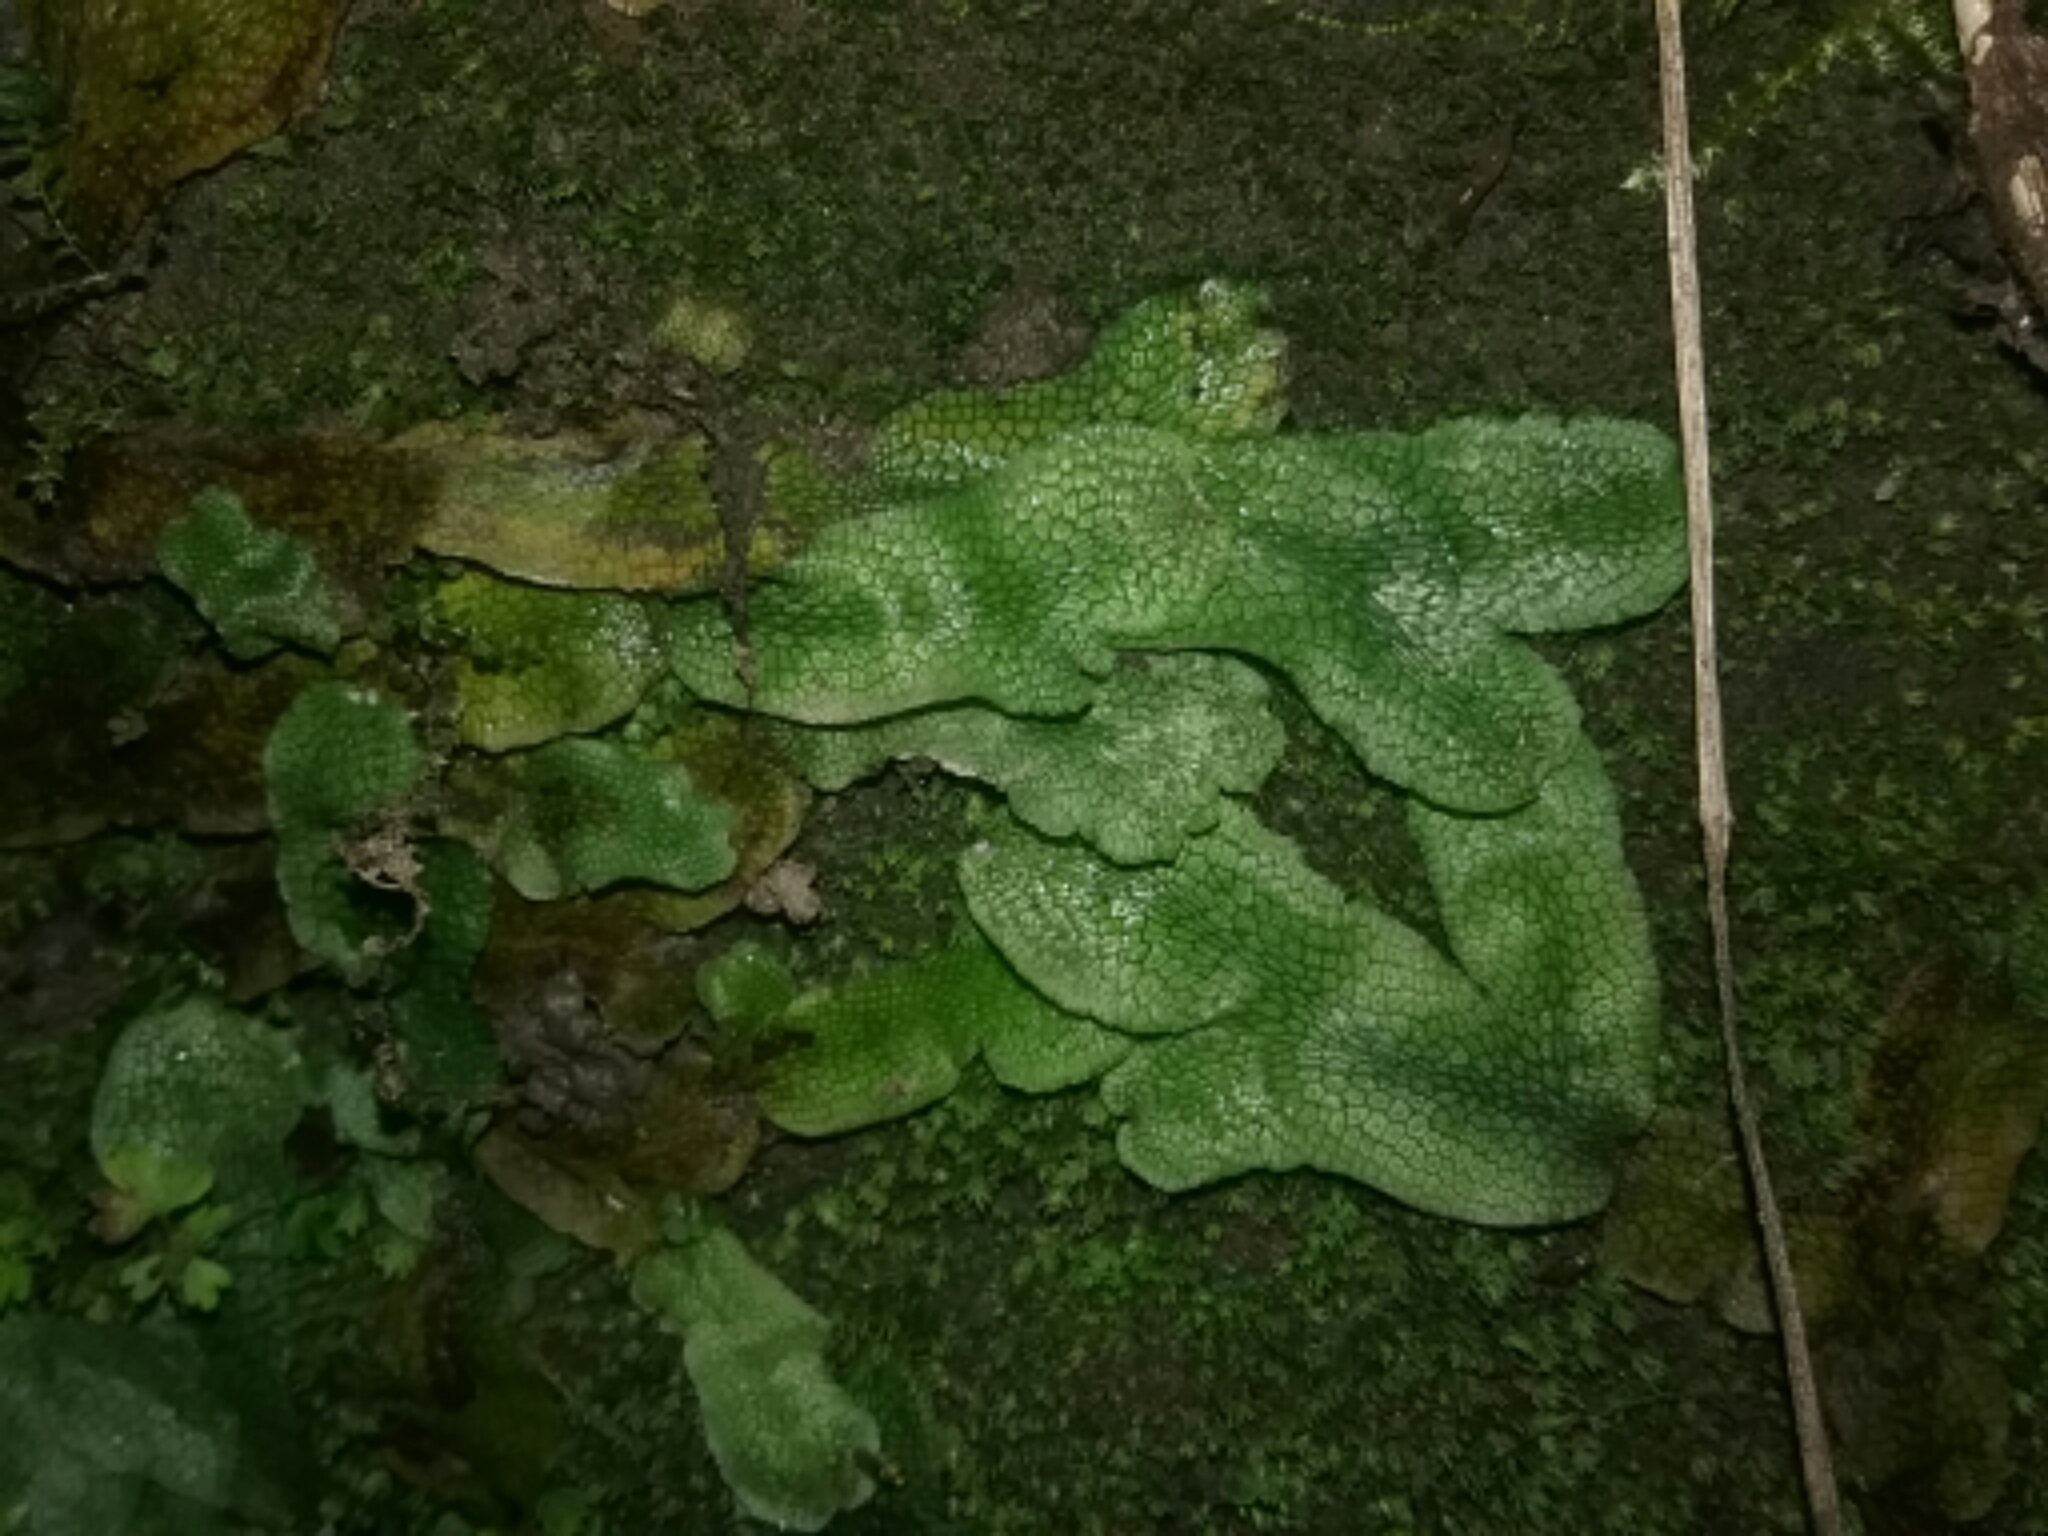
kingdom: Plantae
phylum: Marchantiophyta
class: Marchantiopsida
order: Marchantiales
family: Conocephalaceae
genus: Conocephalum
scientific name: Conocephalum salebrosum
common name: Cat-tongue liverwort
